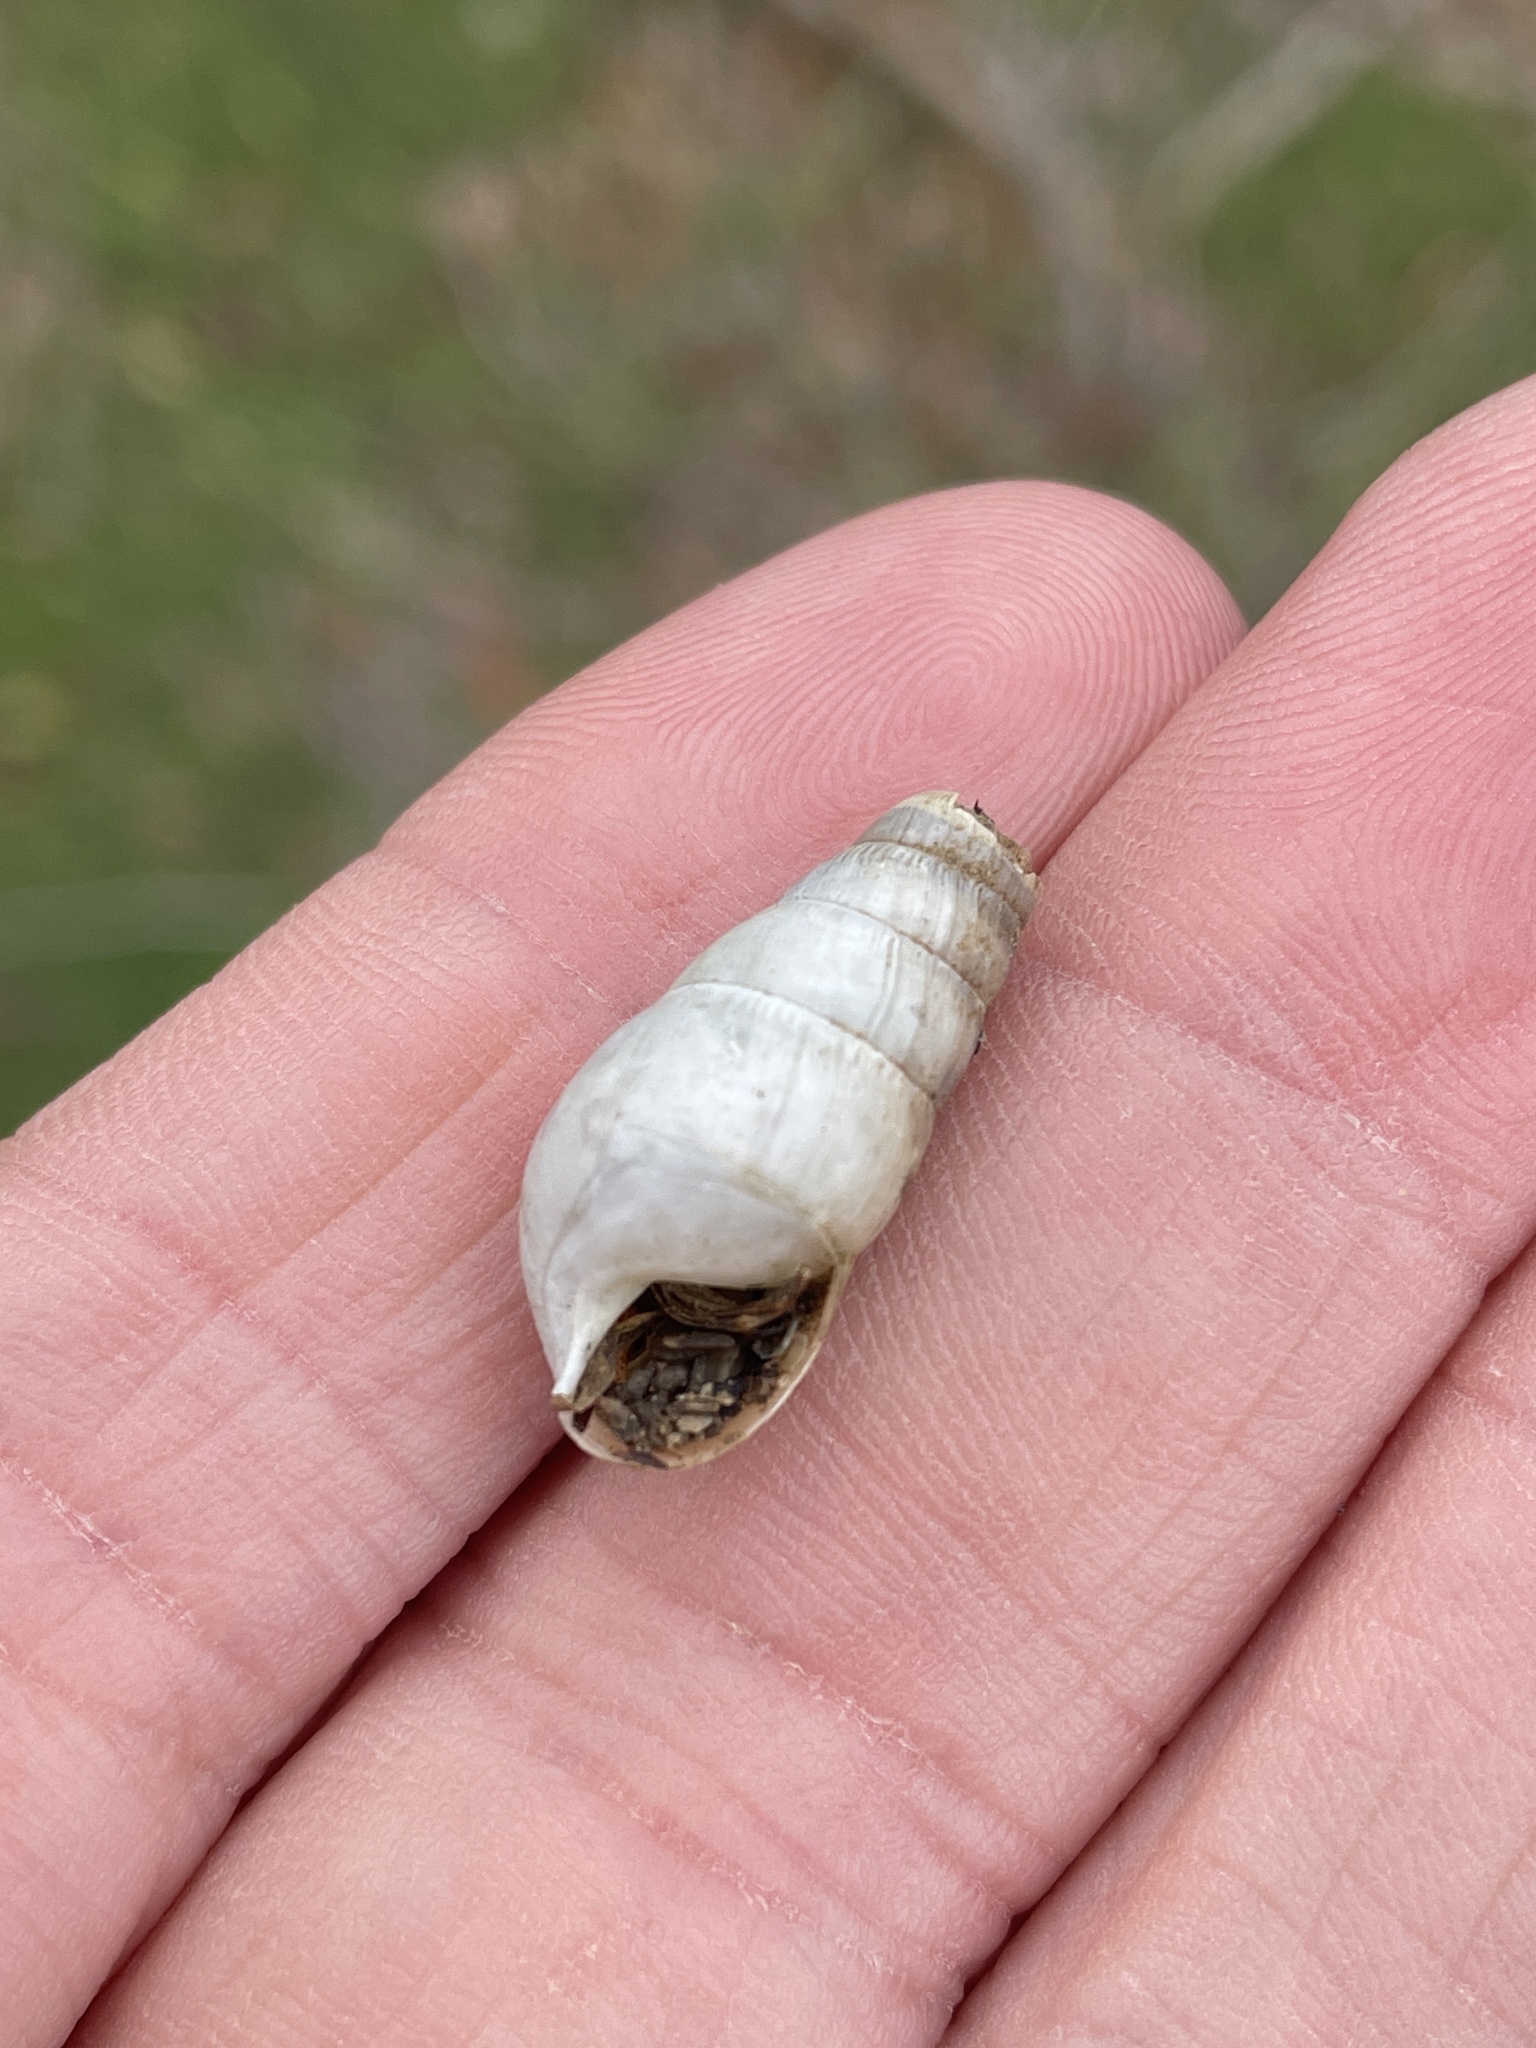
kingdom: Animalia
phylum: Mollusca
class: Gastropoda
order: Stylommatophora
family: Achatinidae
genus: Rumina
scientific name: Rumina decollata
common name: Decollate snail
